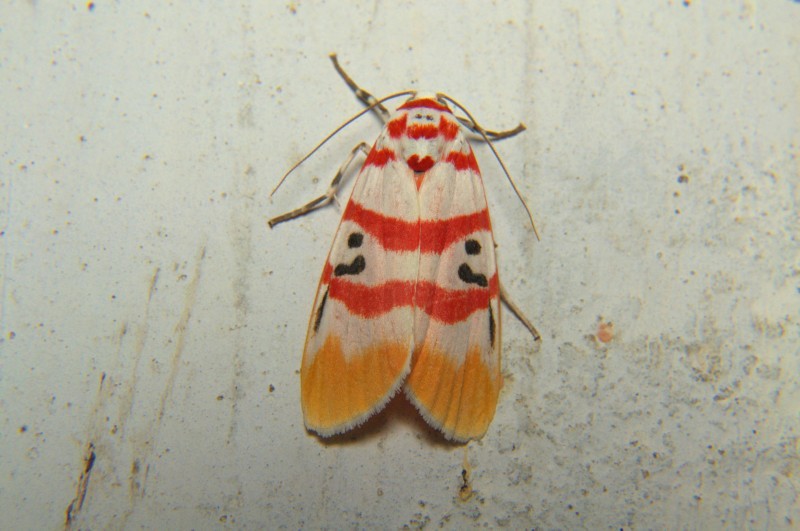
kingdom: Animalia
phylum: Arthropoda
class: Insecta
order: Lepidoptera
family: Erebidae
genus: Cyana
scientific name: Cyana bellissima
